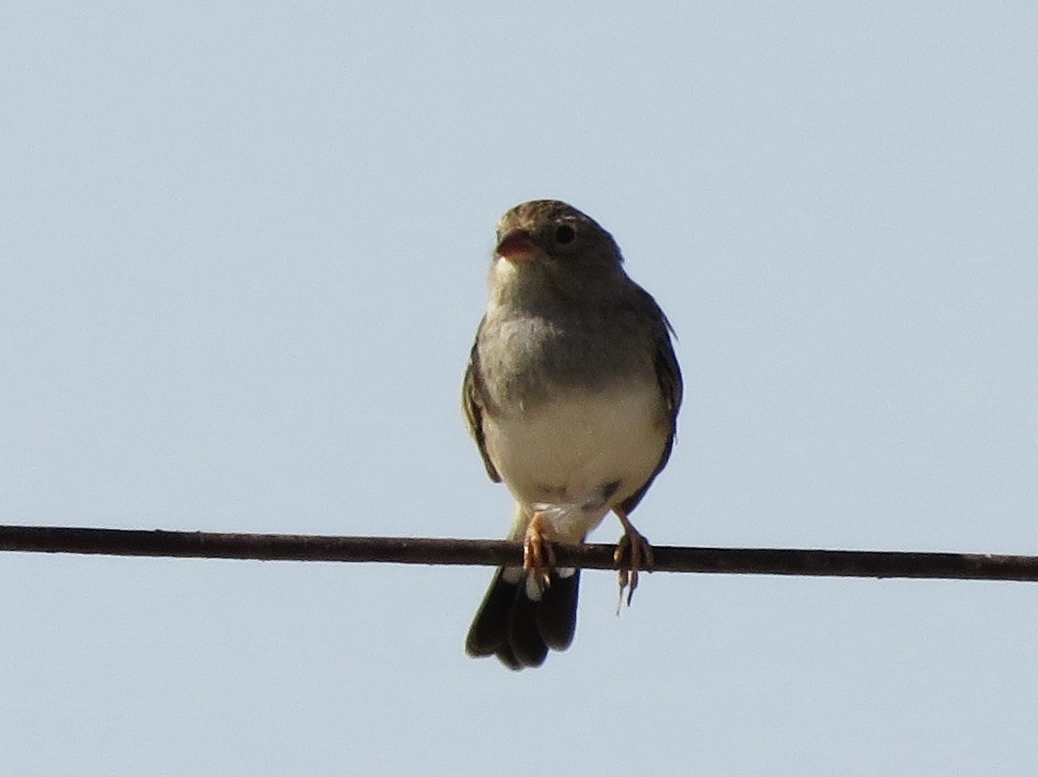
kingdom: Animalia
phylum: Chordata
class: Aves
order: Passeriformes
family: Thraupidae
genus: Porphyrospiza
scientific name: Porphyrospiza alaudina
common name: Band-tailed sierra finch
